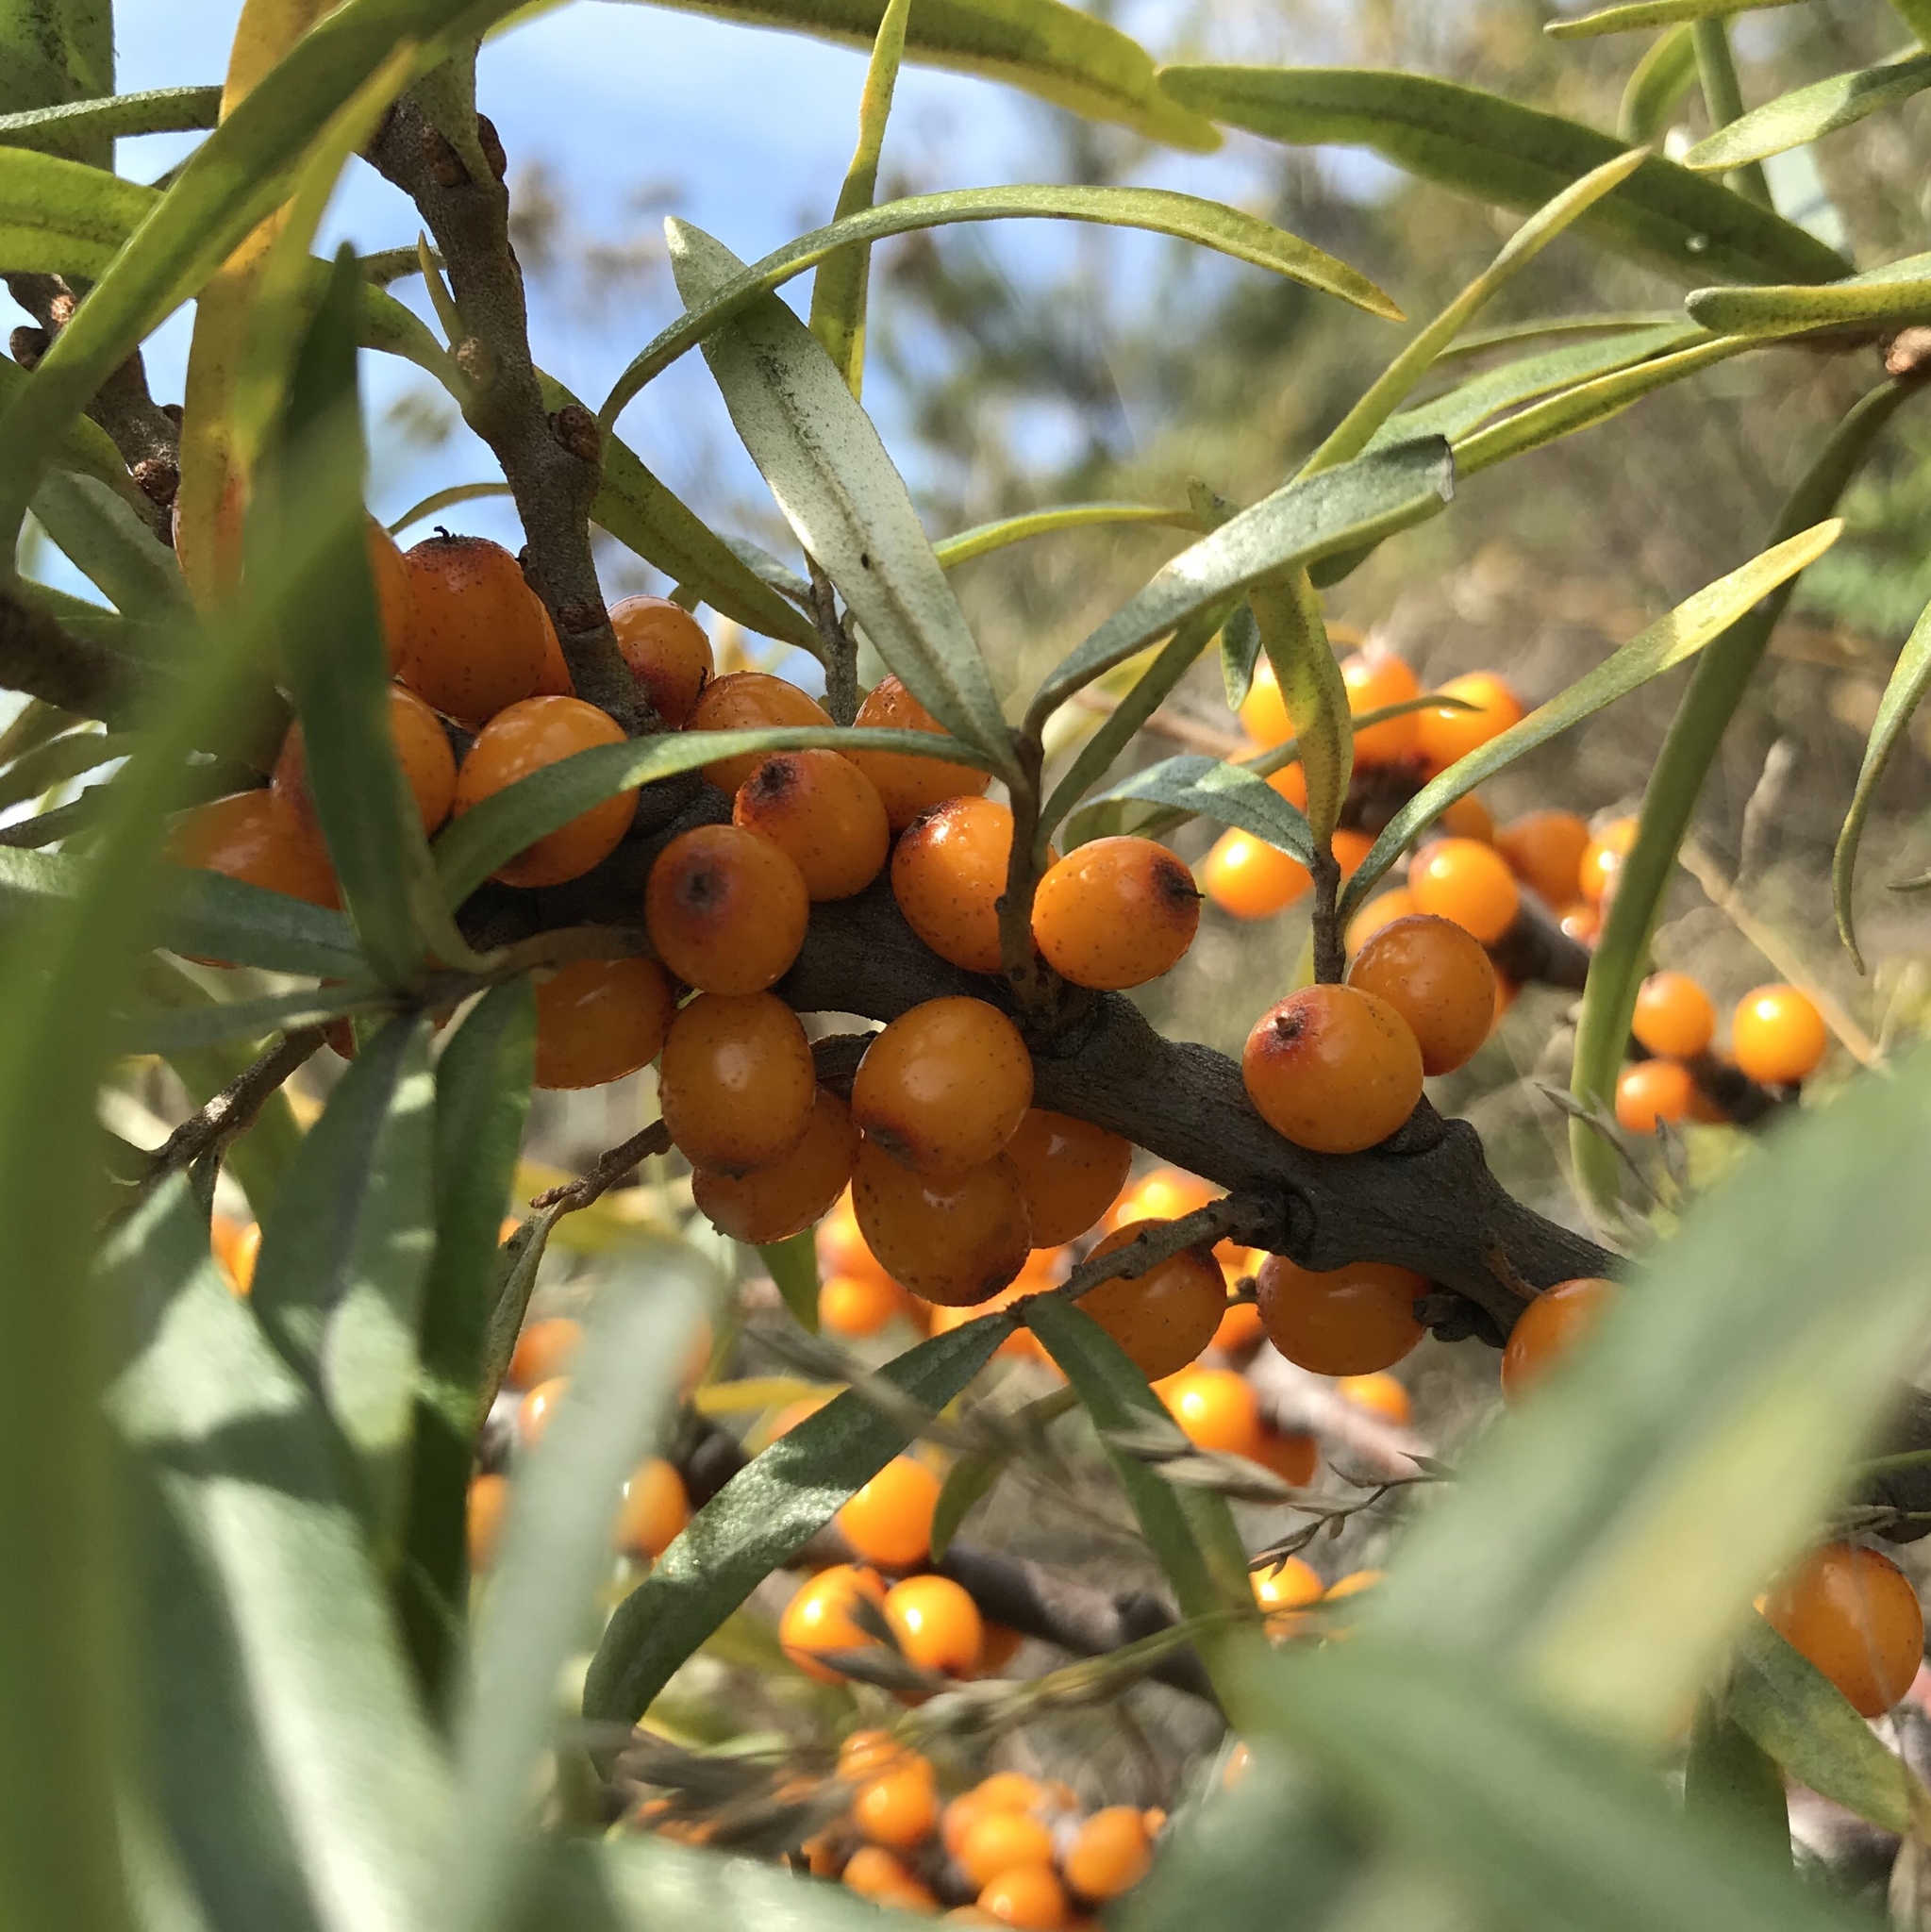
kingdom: Plantae
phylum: Tracheophyta
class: Magnoliopsida
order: Rosales
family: Elaeagnaceae
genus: Hippophae
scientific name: Hippophae rhamnoides
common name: Sea-buckthorn
